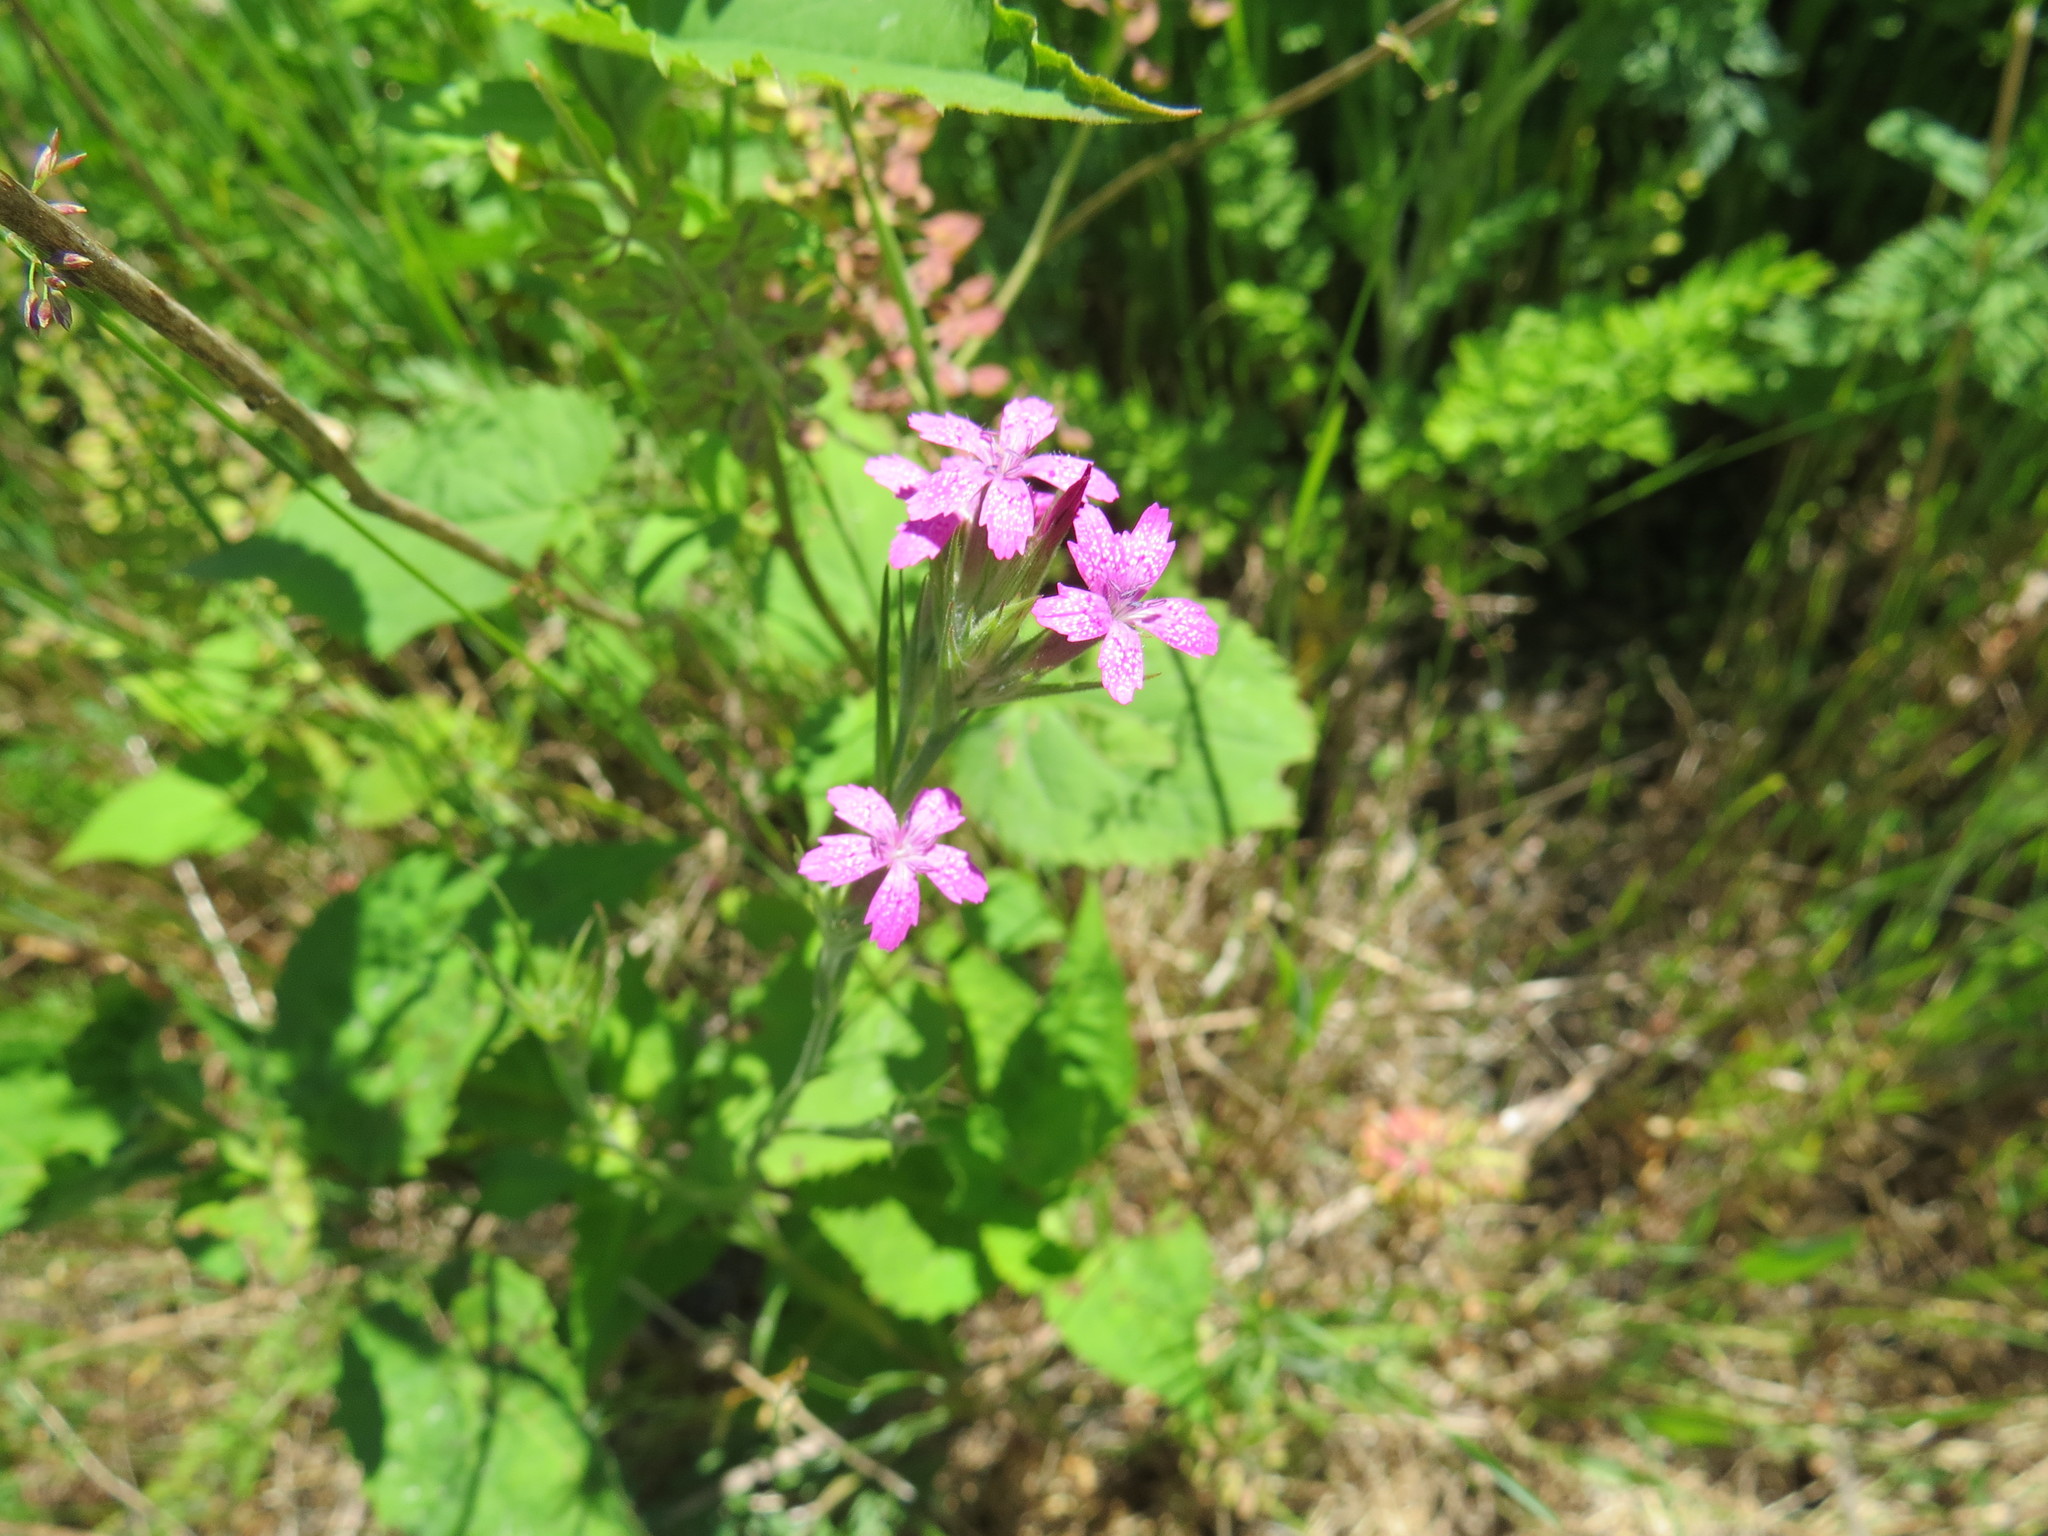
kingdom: Plantae
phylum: Tracheophyta
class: Magnoliopsida
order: Caryophyllales
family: Caryophyllaceae
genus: Dianthus
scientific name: Dianthus armeria
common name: Deptford pink
